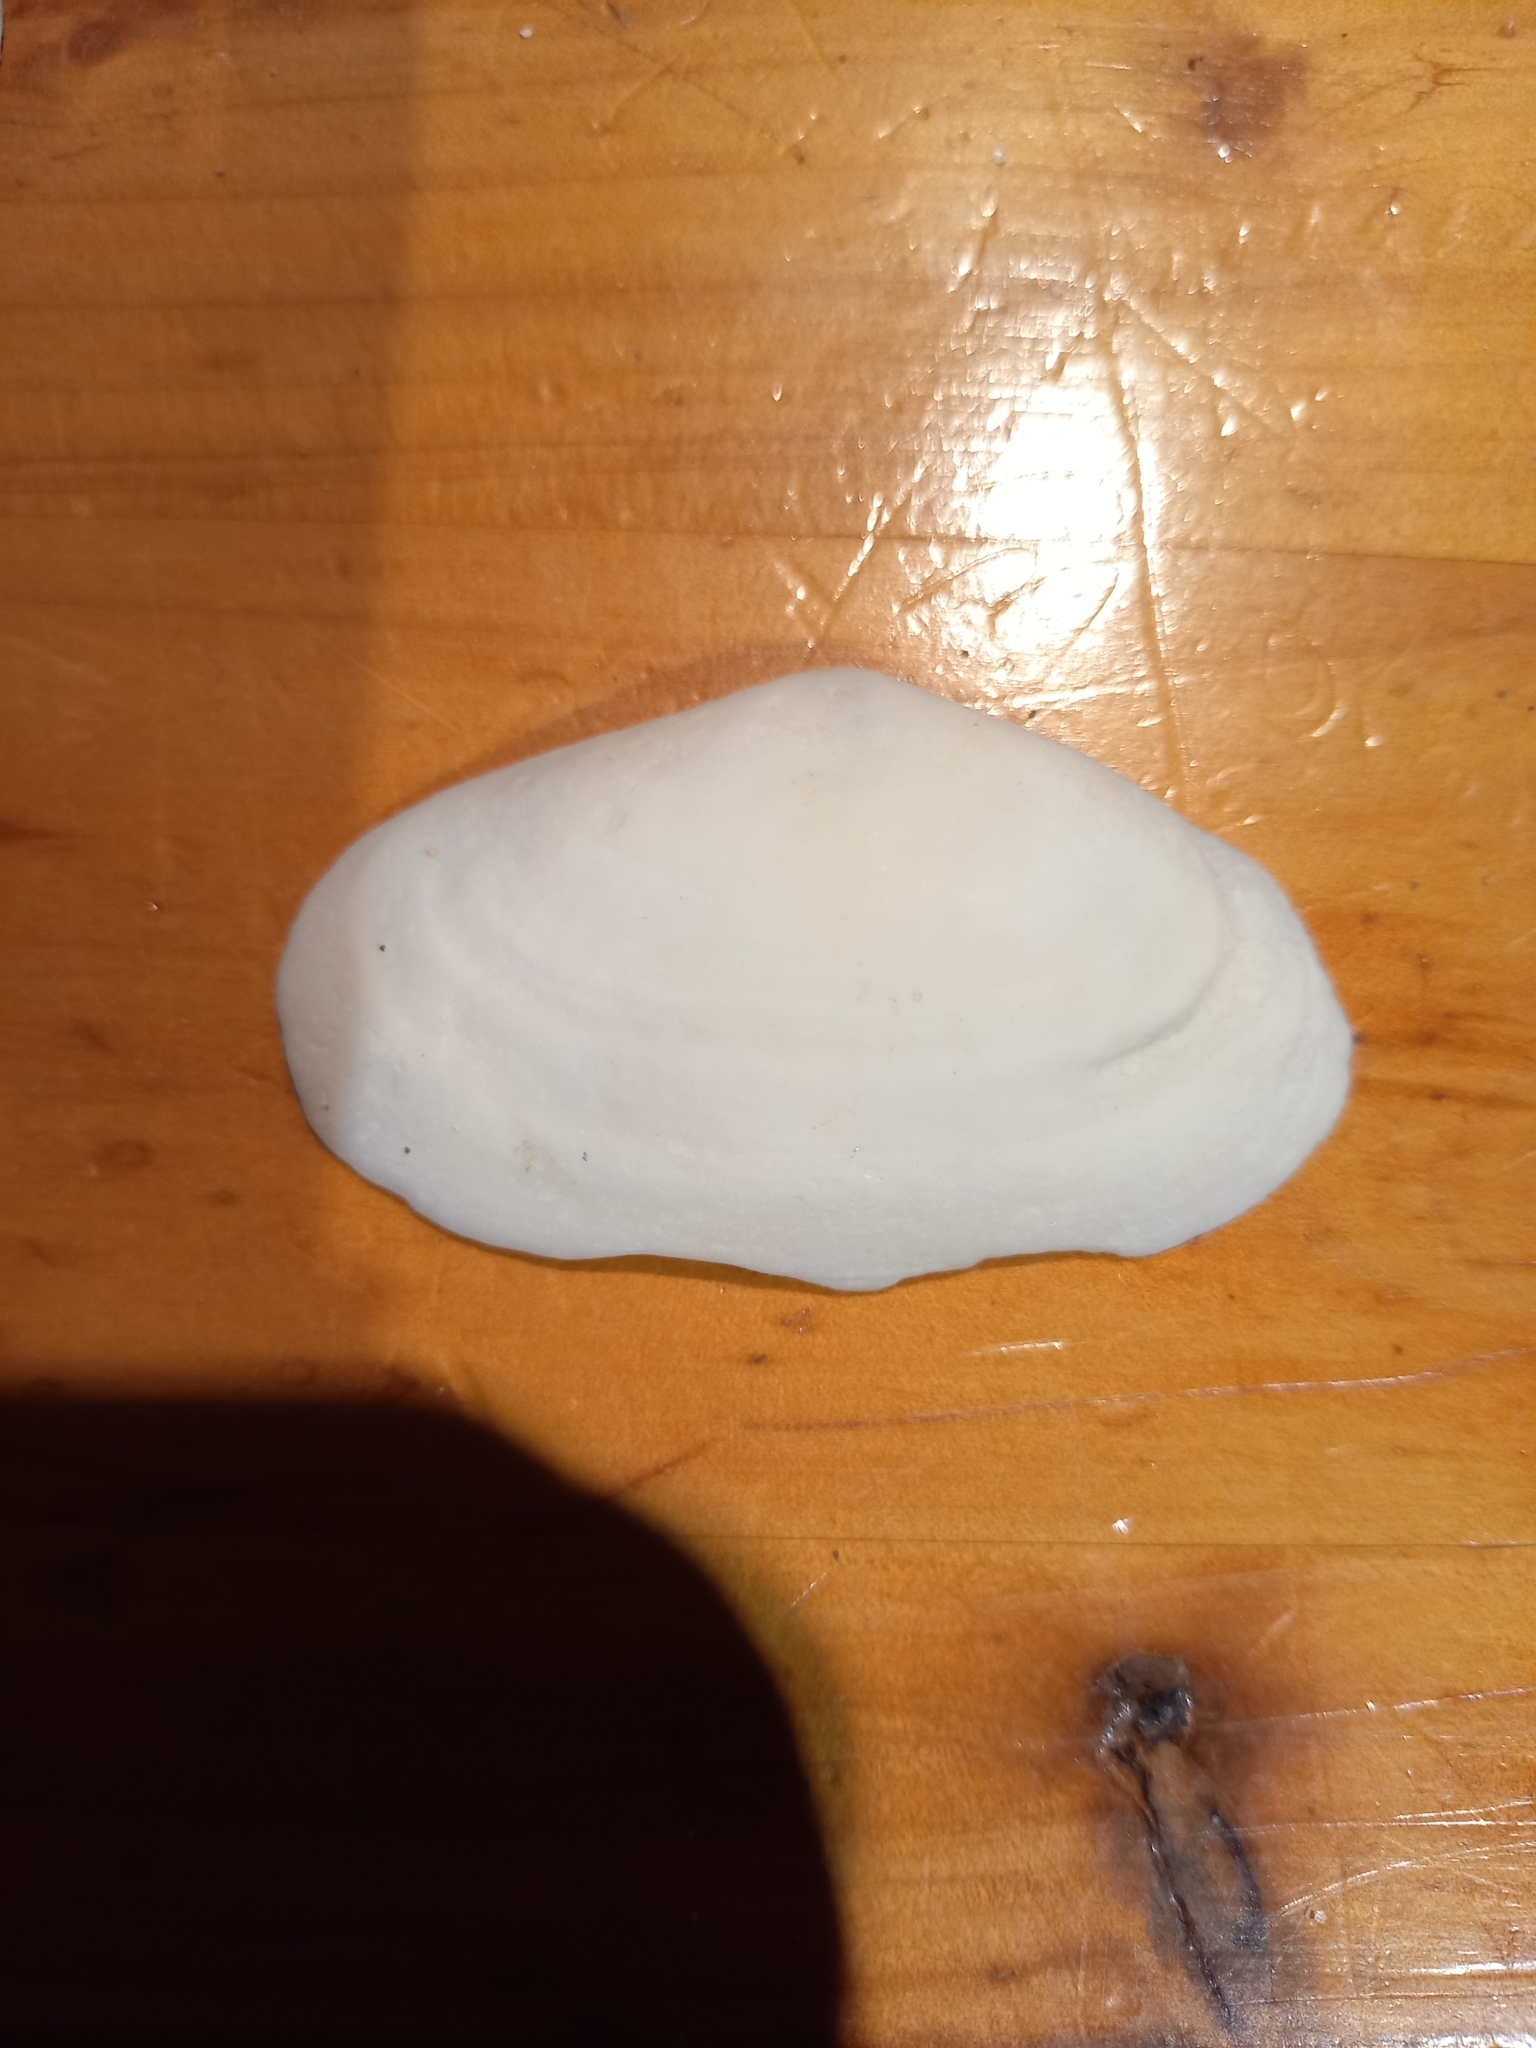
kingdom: Animalia
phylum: Mollusca
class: Bivalvia
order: Venerida
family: Mesodesmatidae
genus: Paphies
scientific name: Paphies australis
